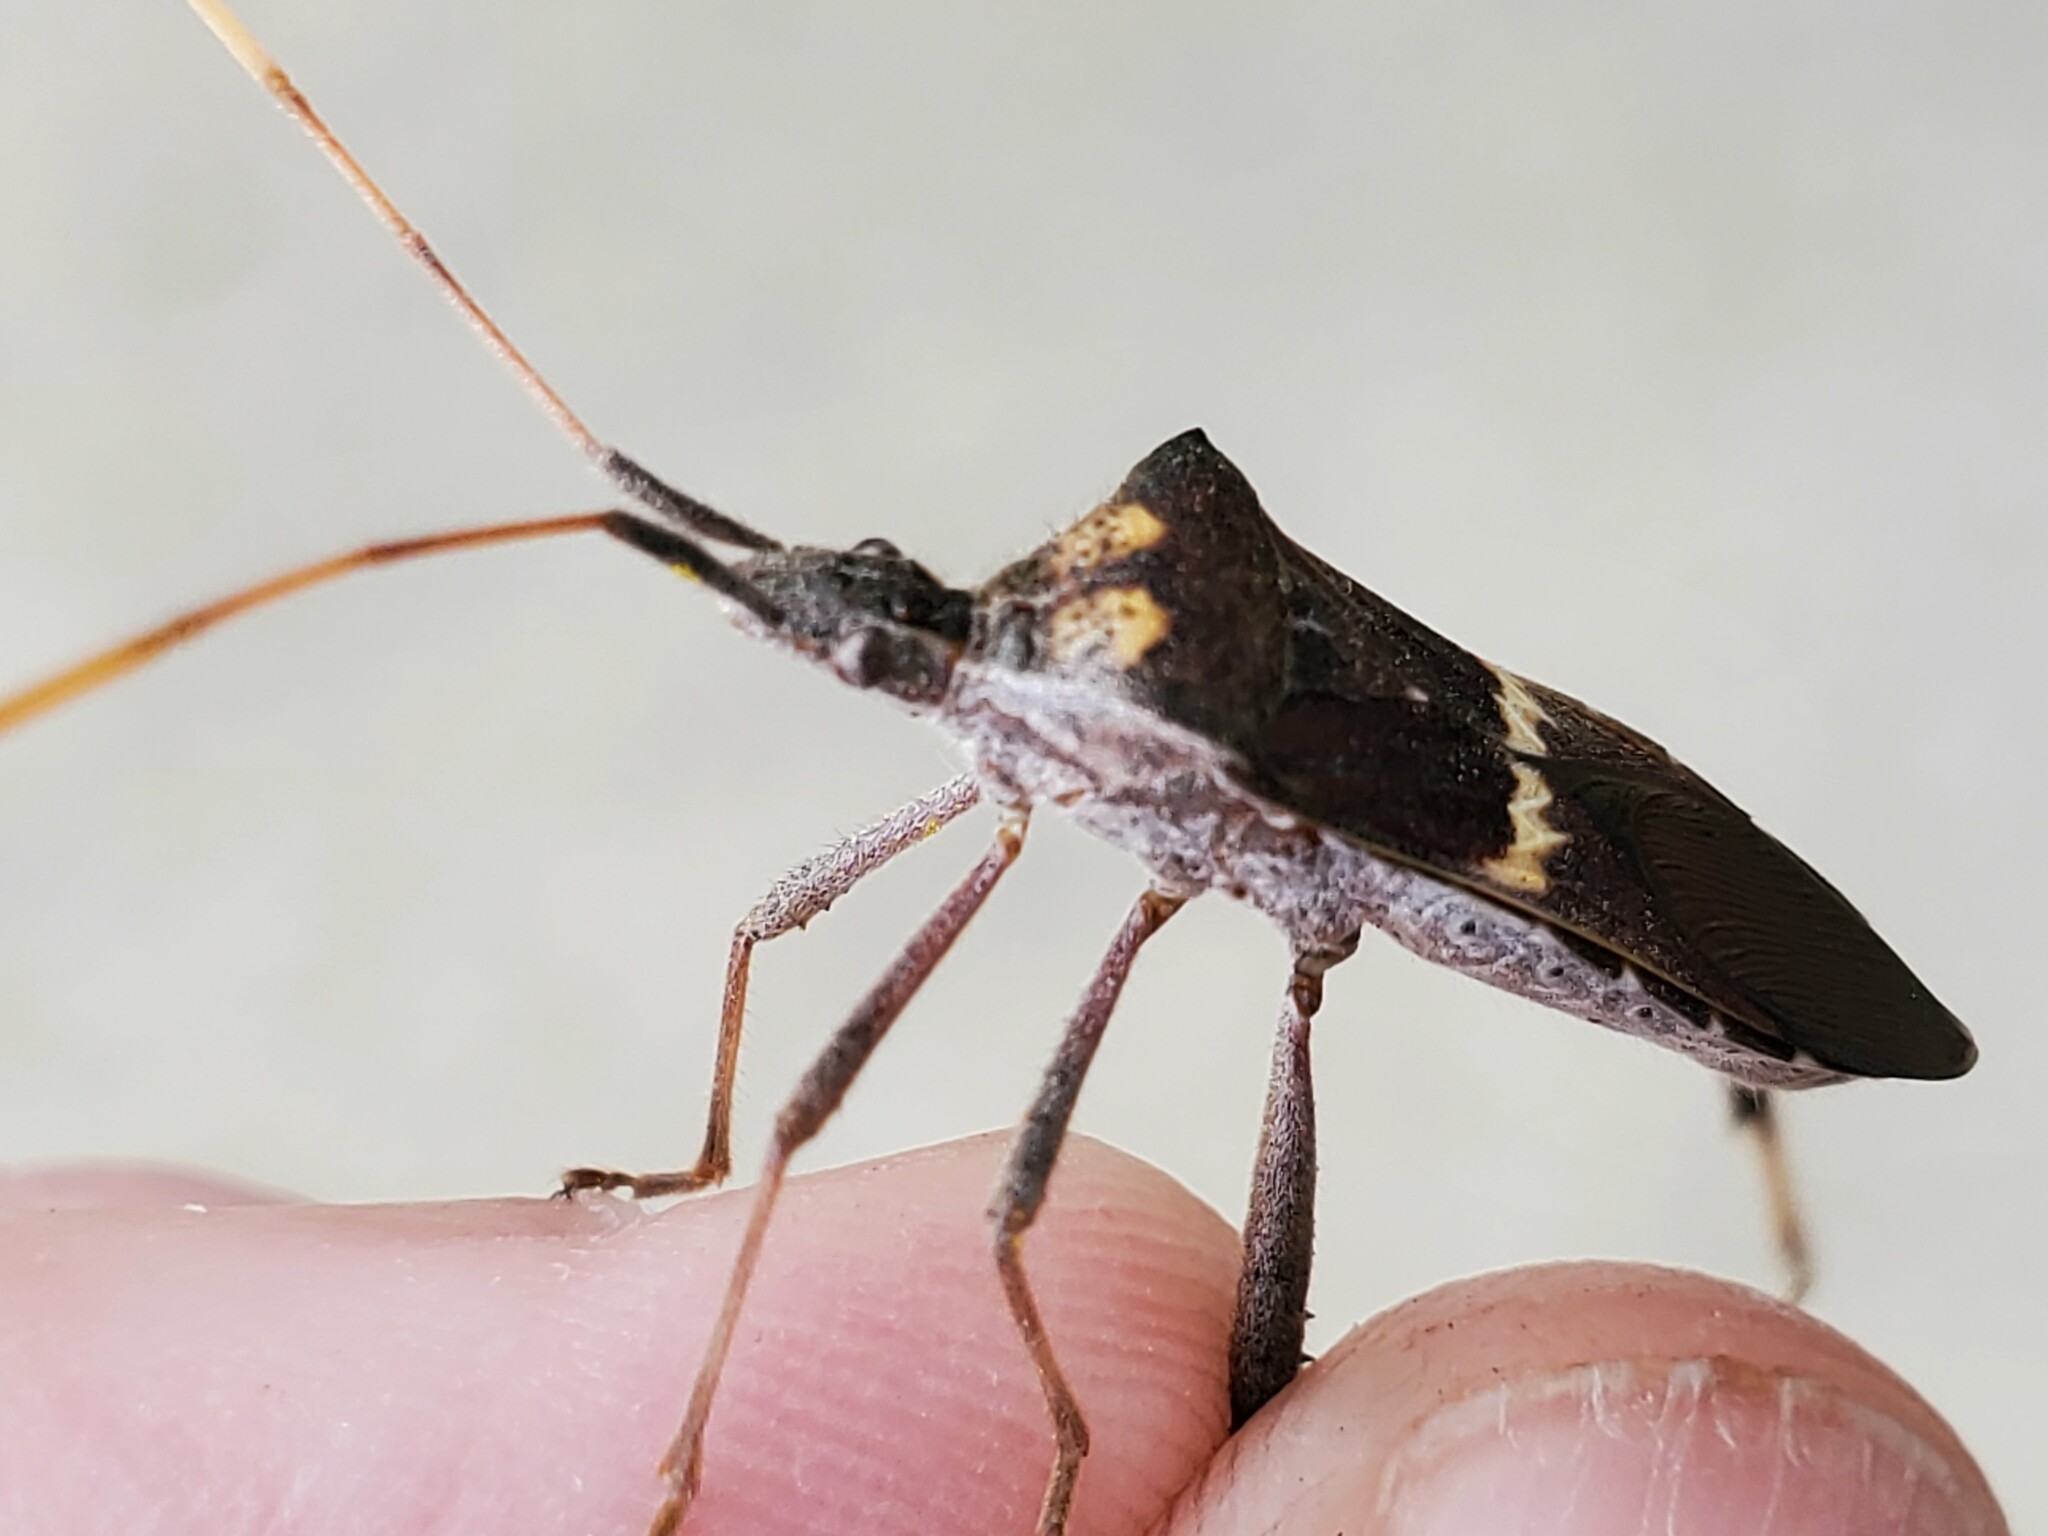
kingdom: Animalia
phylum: Arthropoda
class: Insecta
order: Hemiptera
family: Coreidae
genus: Leptoglossus
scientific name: Leptoglossus zonatus
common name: Large-legged bug
